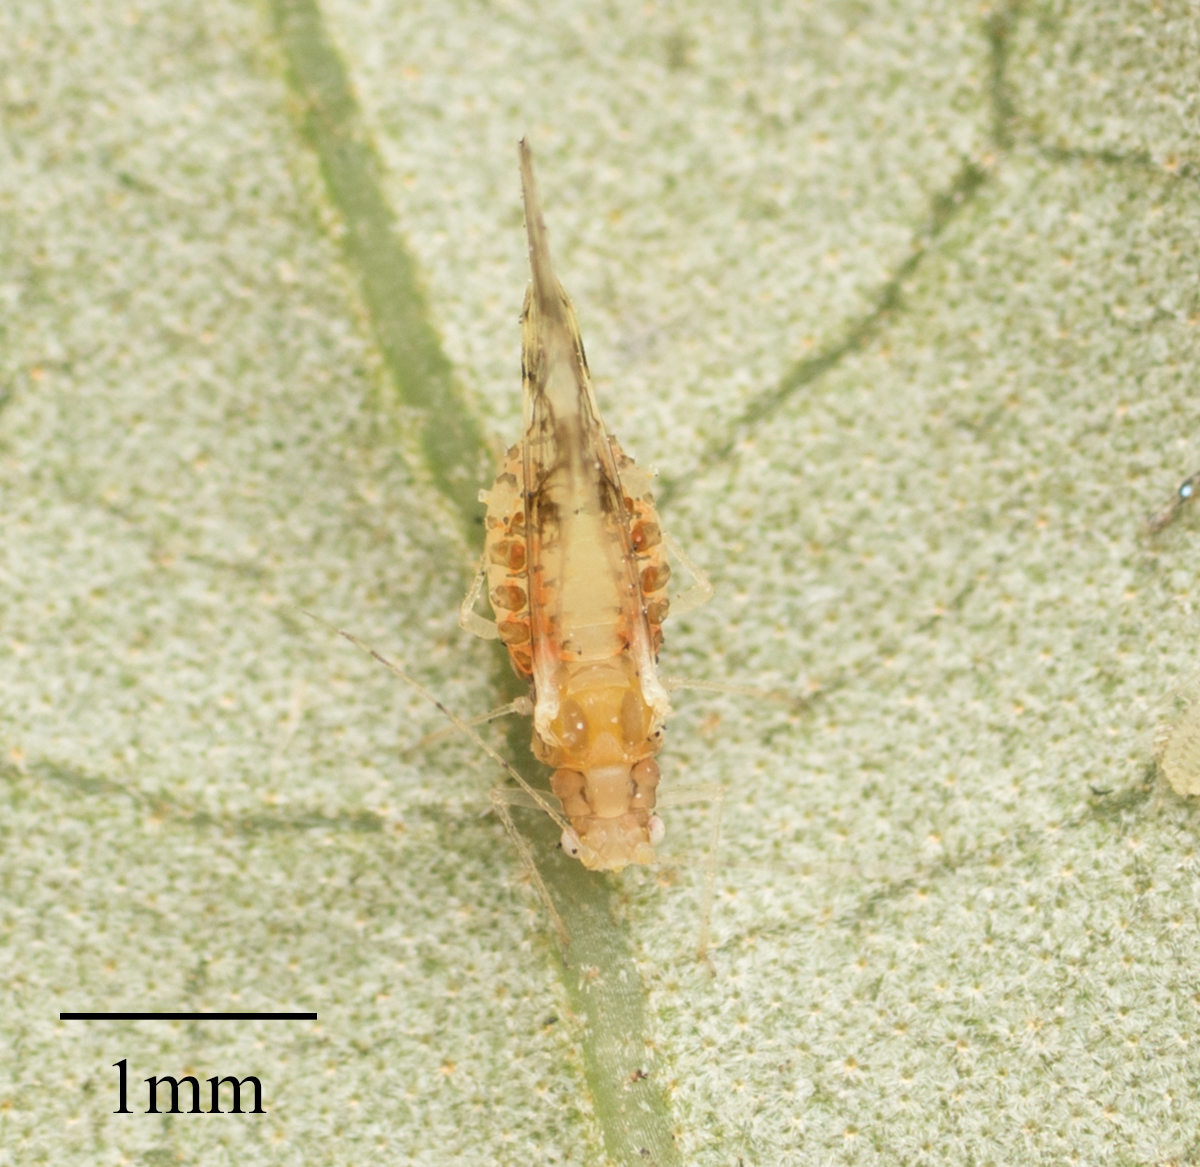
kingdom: Animalia
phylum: Arthropoda
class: Insecta
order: Hemiptera
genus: Neomyzocallis
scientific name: Neomyzocallis
